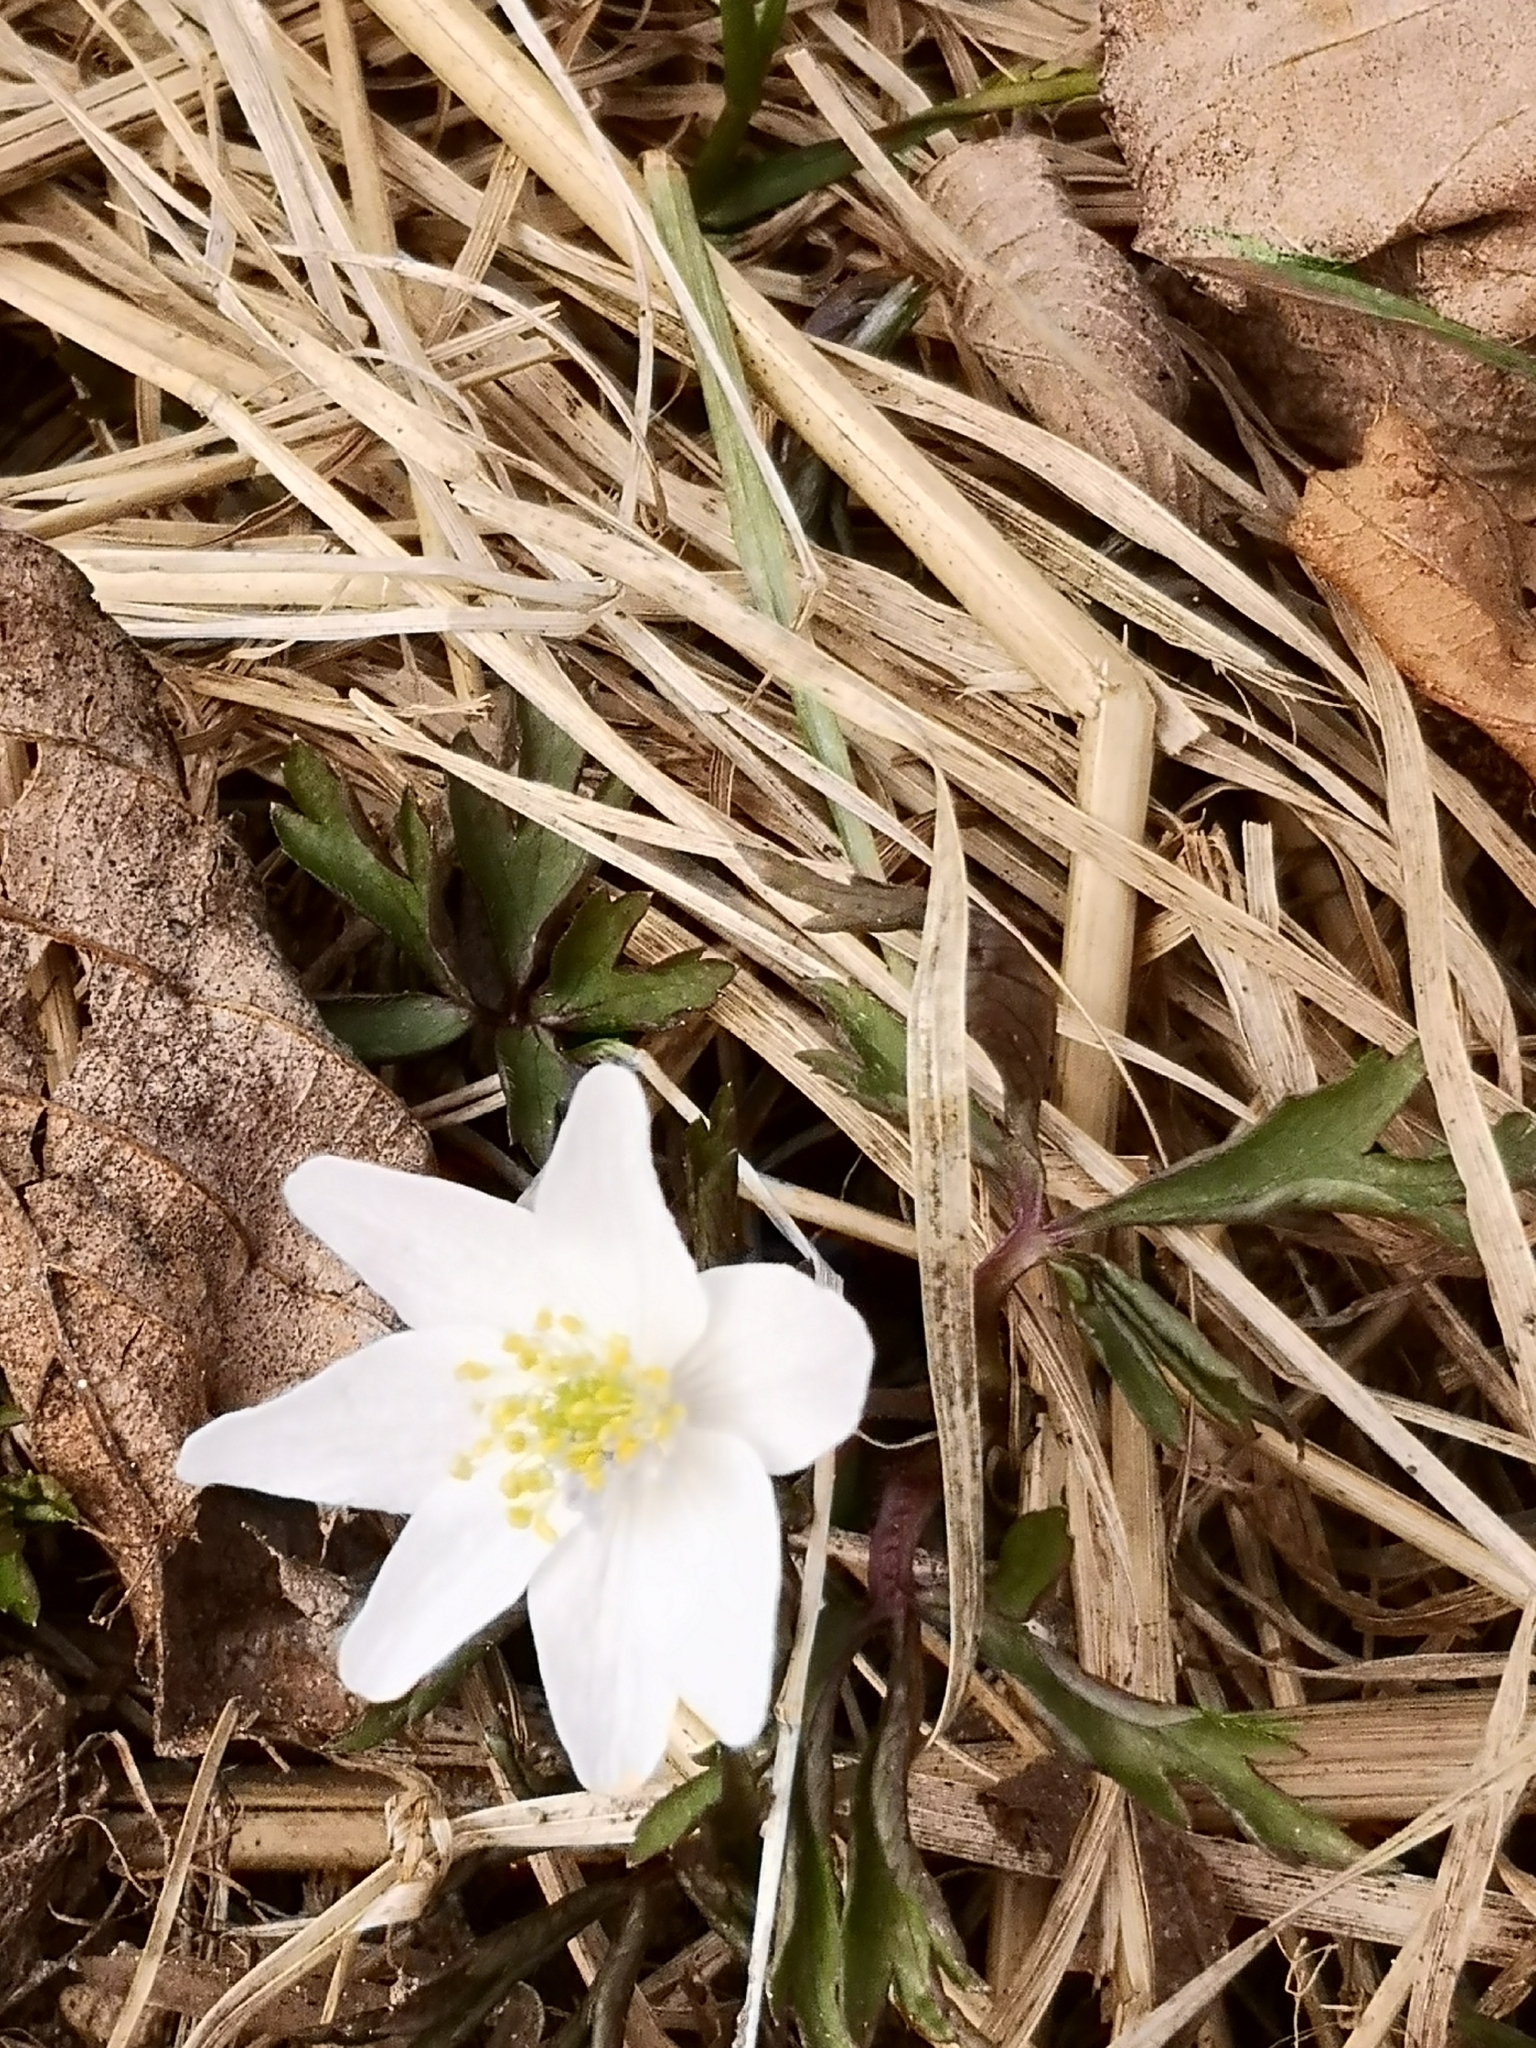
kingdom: Plantae
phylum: Tracheophyta
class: Magnoliopsida
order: Ranunculales
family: Ranunculaceae
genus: Anemone
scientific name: Anemone nemorosa
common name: Wood anemone
